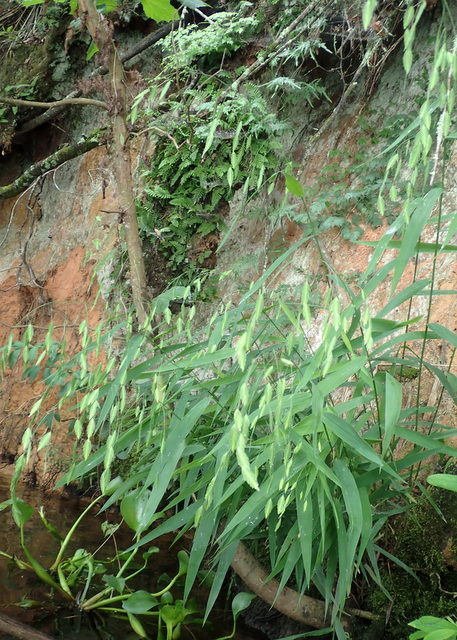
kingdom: Plantae
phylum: Tracheophyta
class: Liliopsida
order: Poales
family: Poaceae
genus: Chasmanthium
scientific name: Chasmanthium latifolium
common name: Broad-leaved chasmanthium
